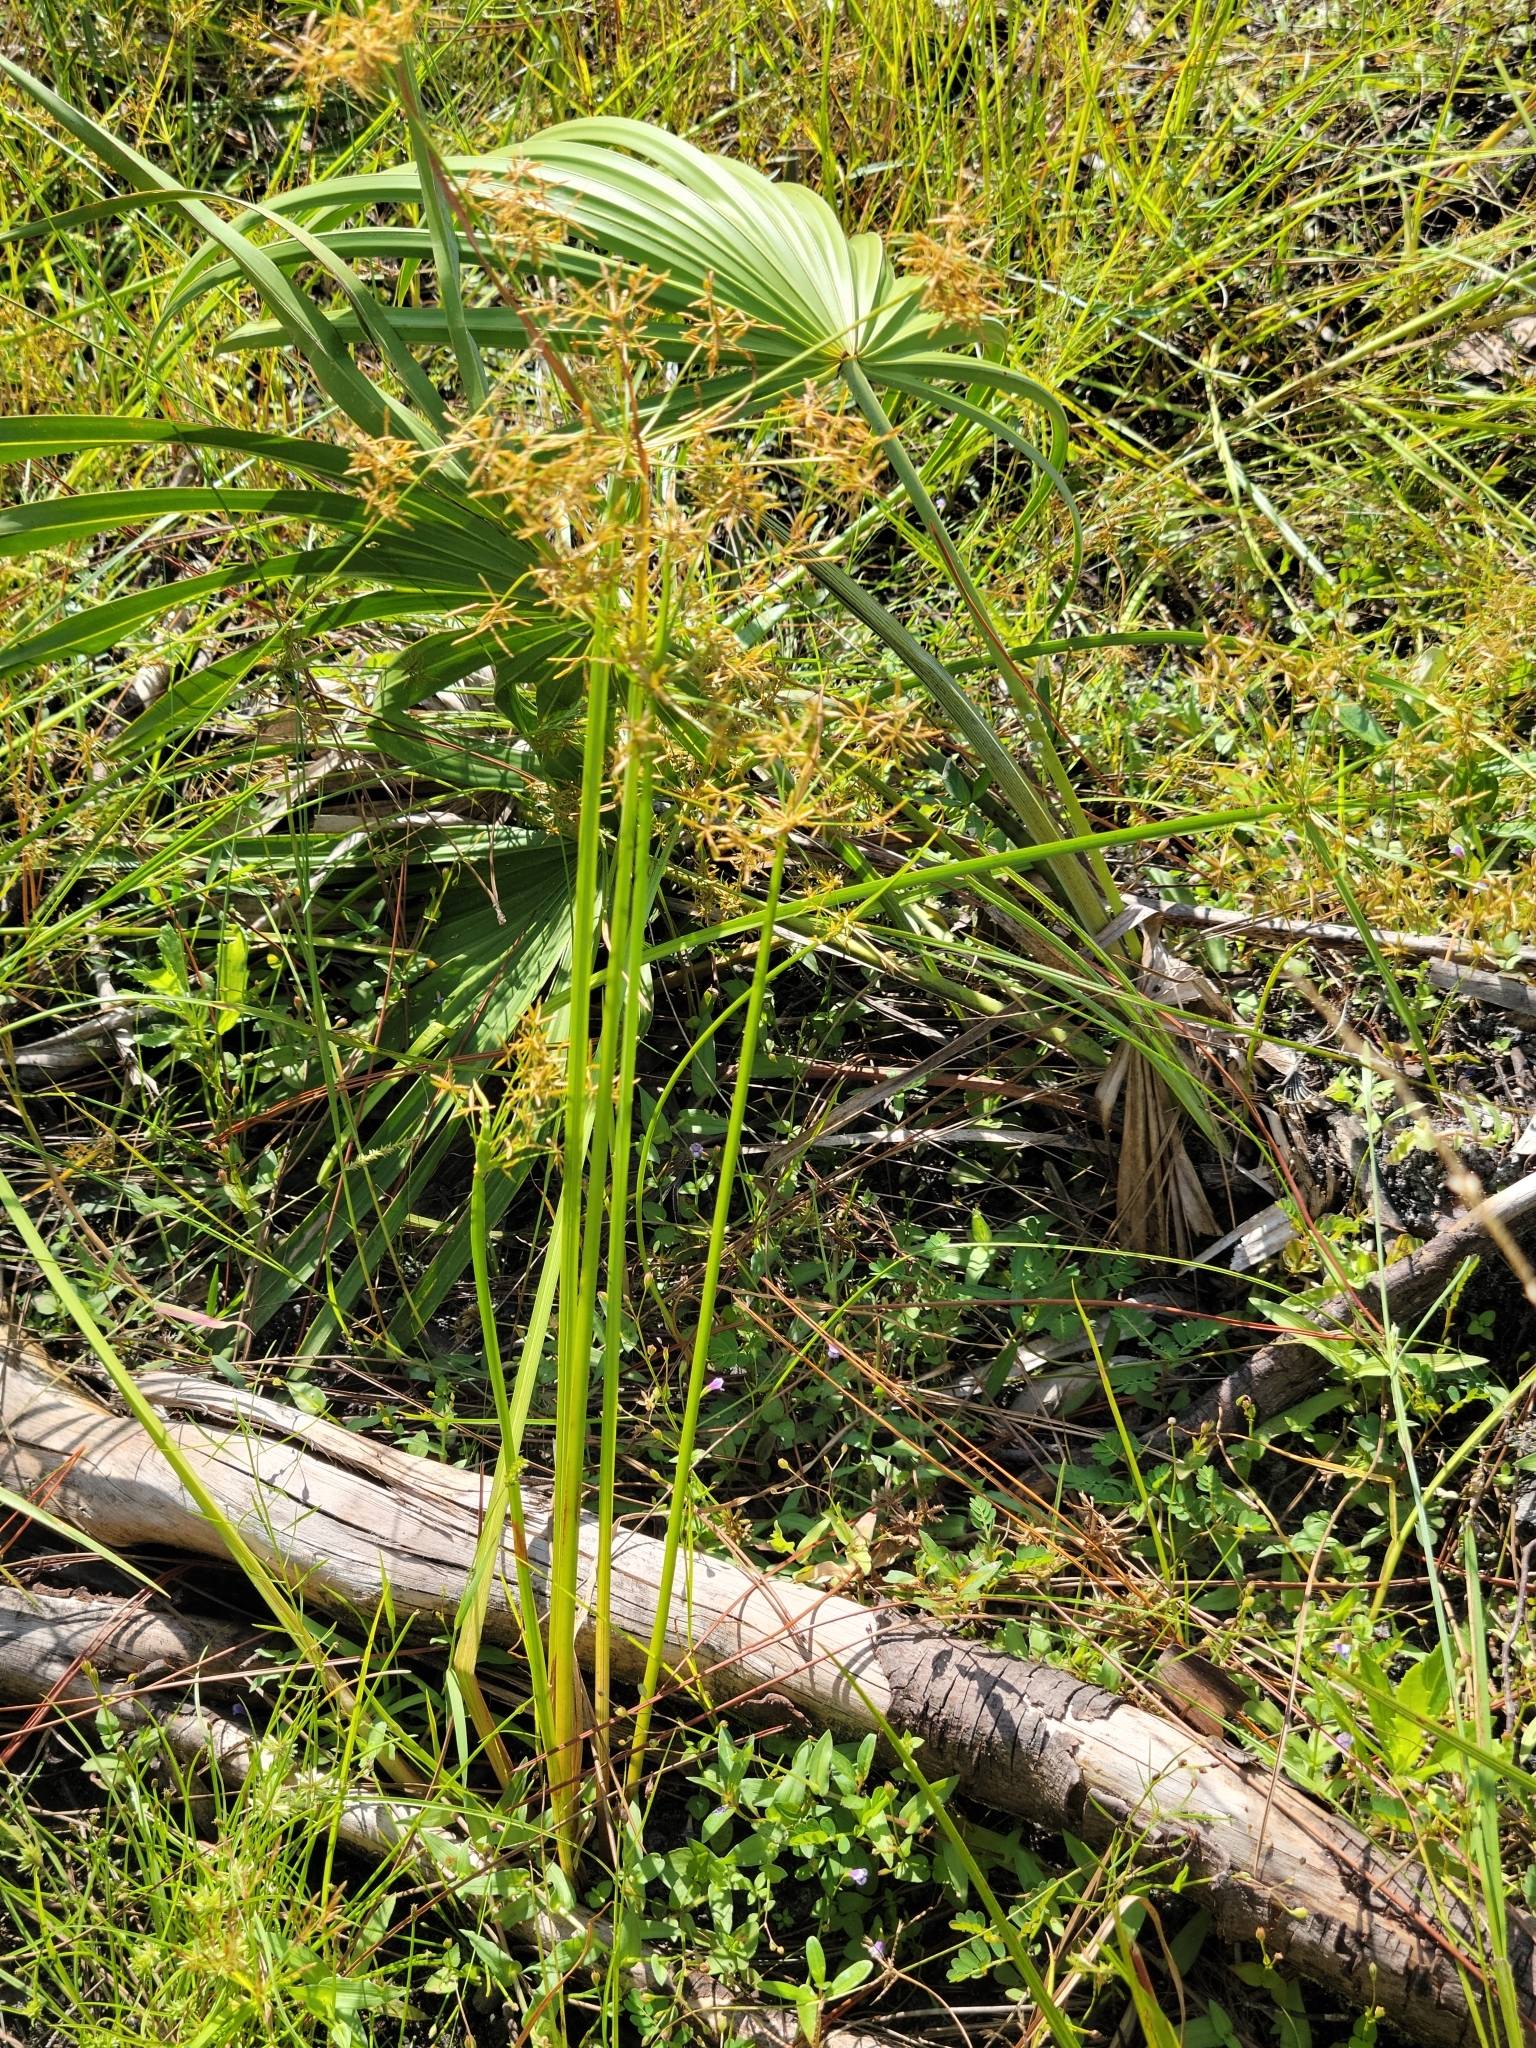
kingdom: Plantae
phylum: Tracheophyta
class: Liliopsida
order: Poales
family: Cyperaceae
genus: Cyperus
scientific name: Cyperus haspan
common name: Haspan flatsedge
